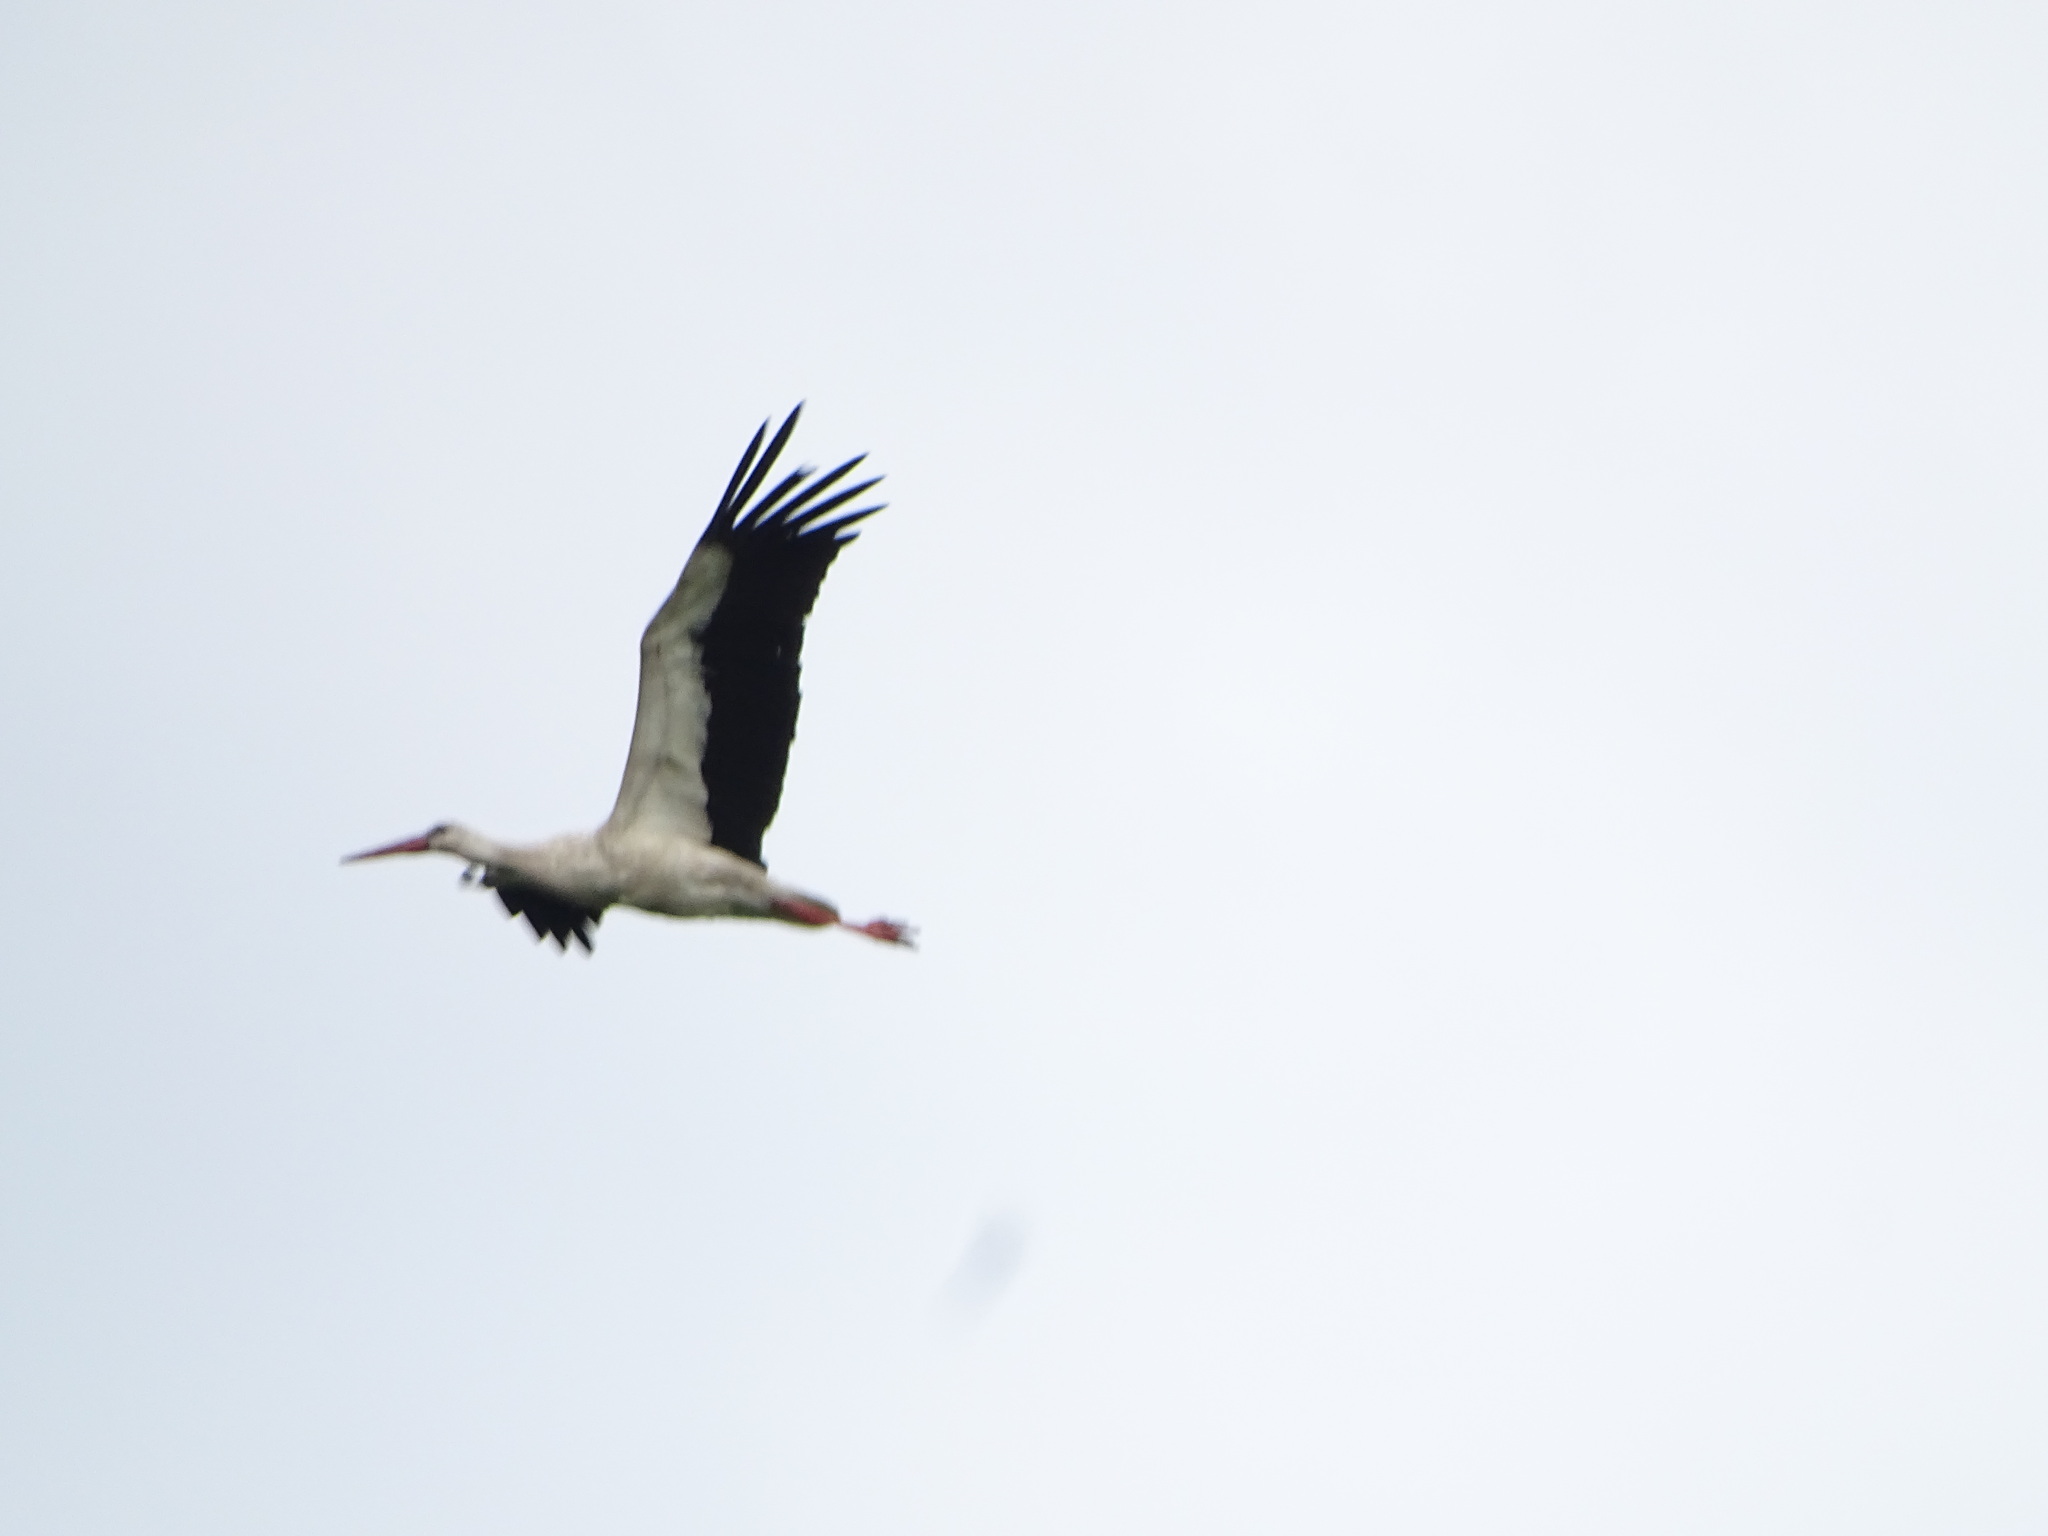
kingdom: Animalia
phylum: Chordata
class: Aves
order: Ciconiiformes
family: Ciconiidae
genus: Ciconia
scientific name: Ciconia ciconia
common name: White stork
